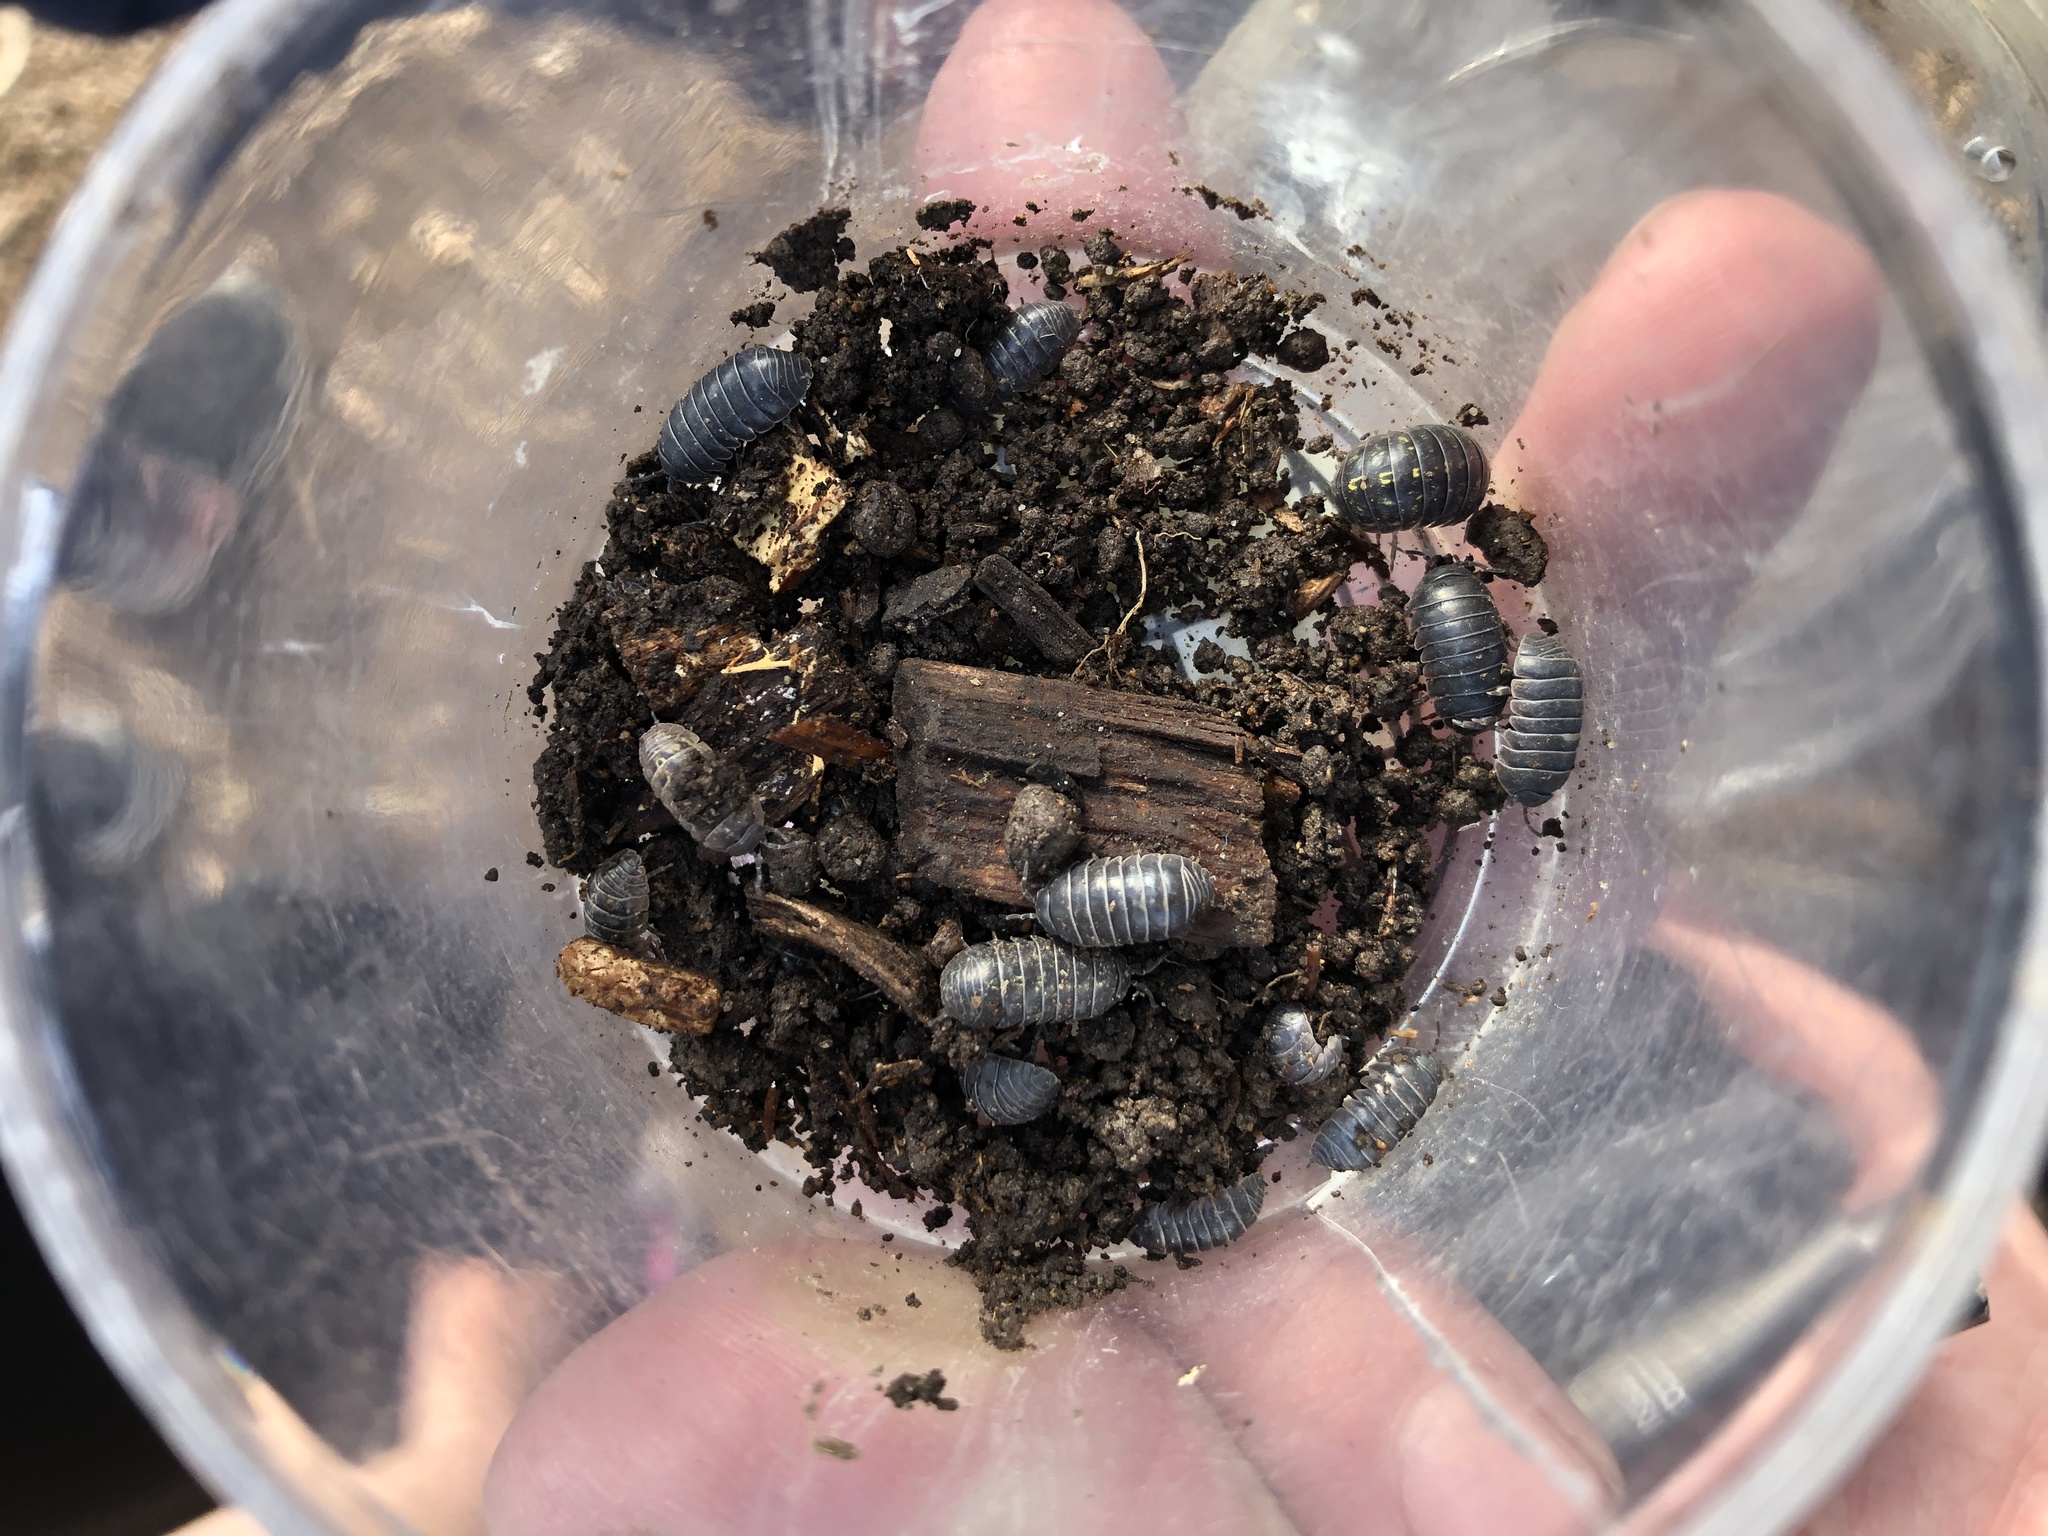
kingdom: Animalia
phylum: Arthropoda
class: Malacostraca
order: Isopoda
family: Armadillidiidae
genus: Armadillidium
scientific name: Armadillidium vulgare
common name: Common pill woodlouse
